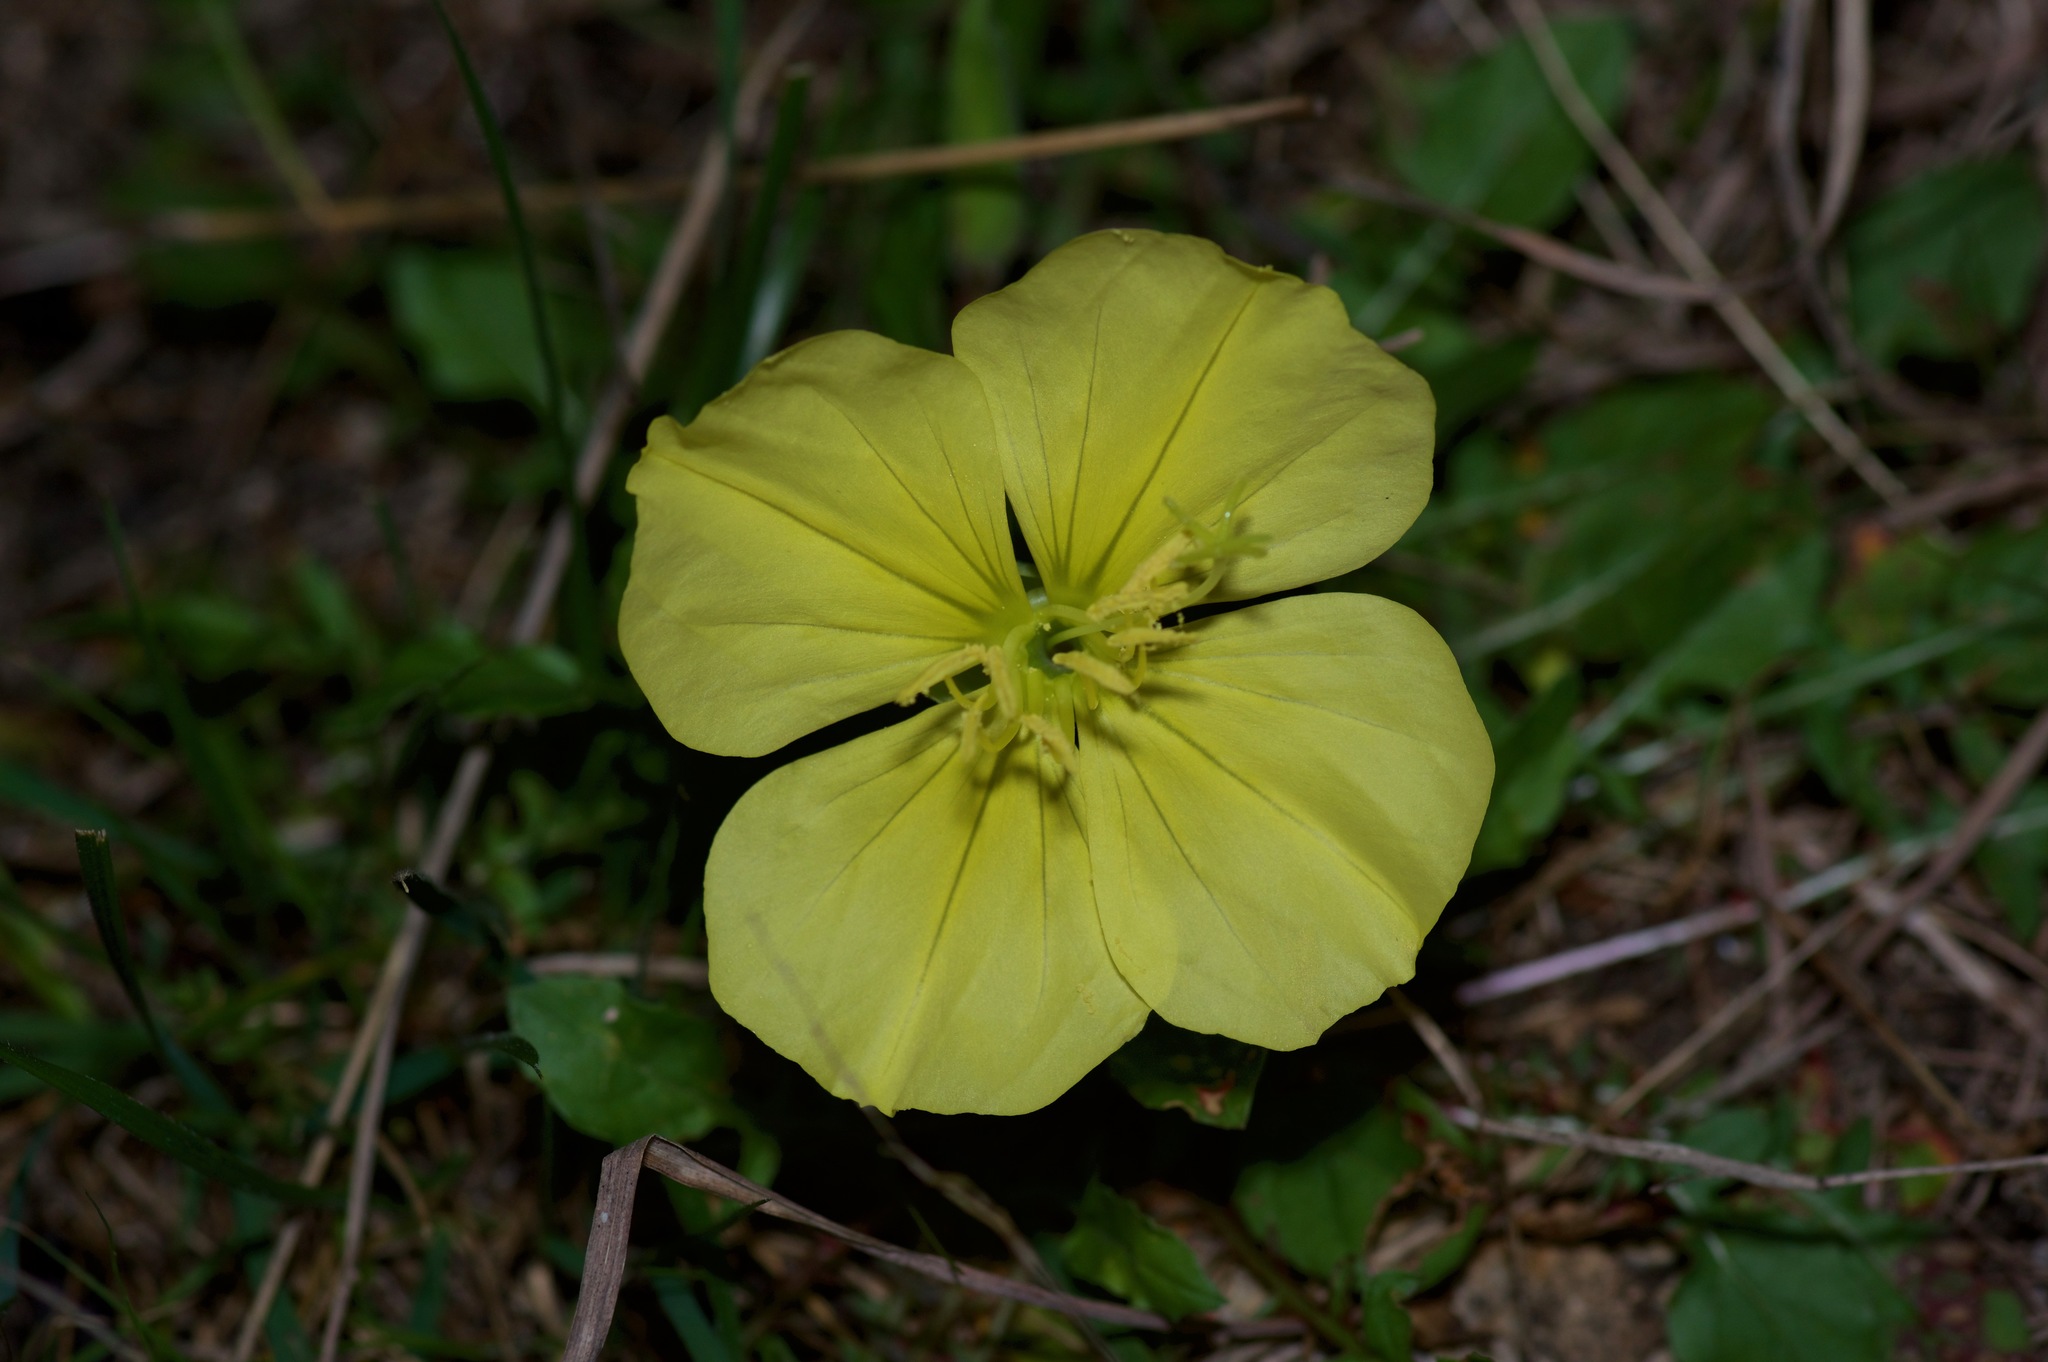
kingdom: Plantae
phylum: Tracheophyta
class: Magnoliopsida
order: Myrtales
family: Onagraceae
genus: Oenothera
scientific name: Oenothera triloba
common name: Sessile evening-primrose
